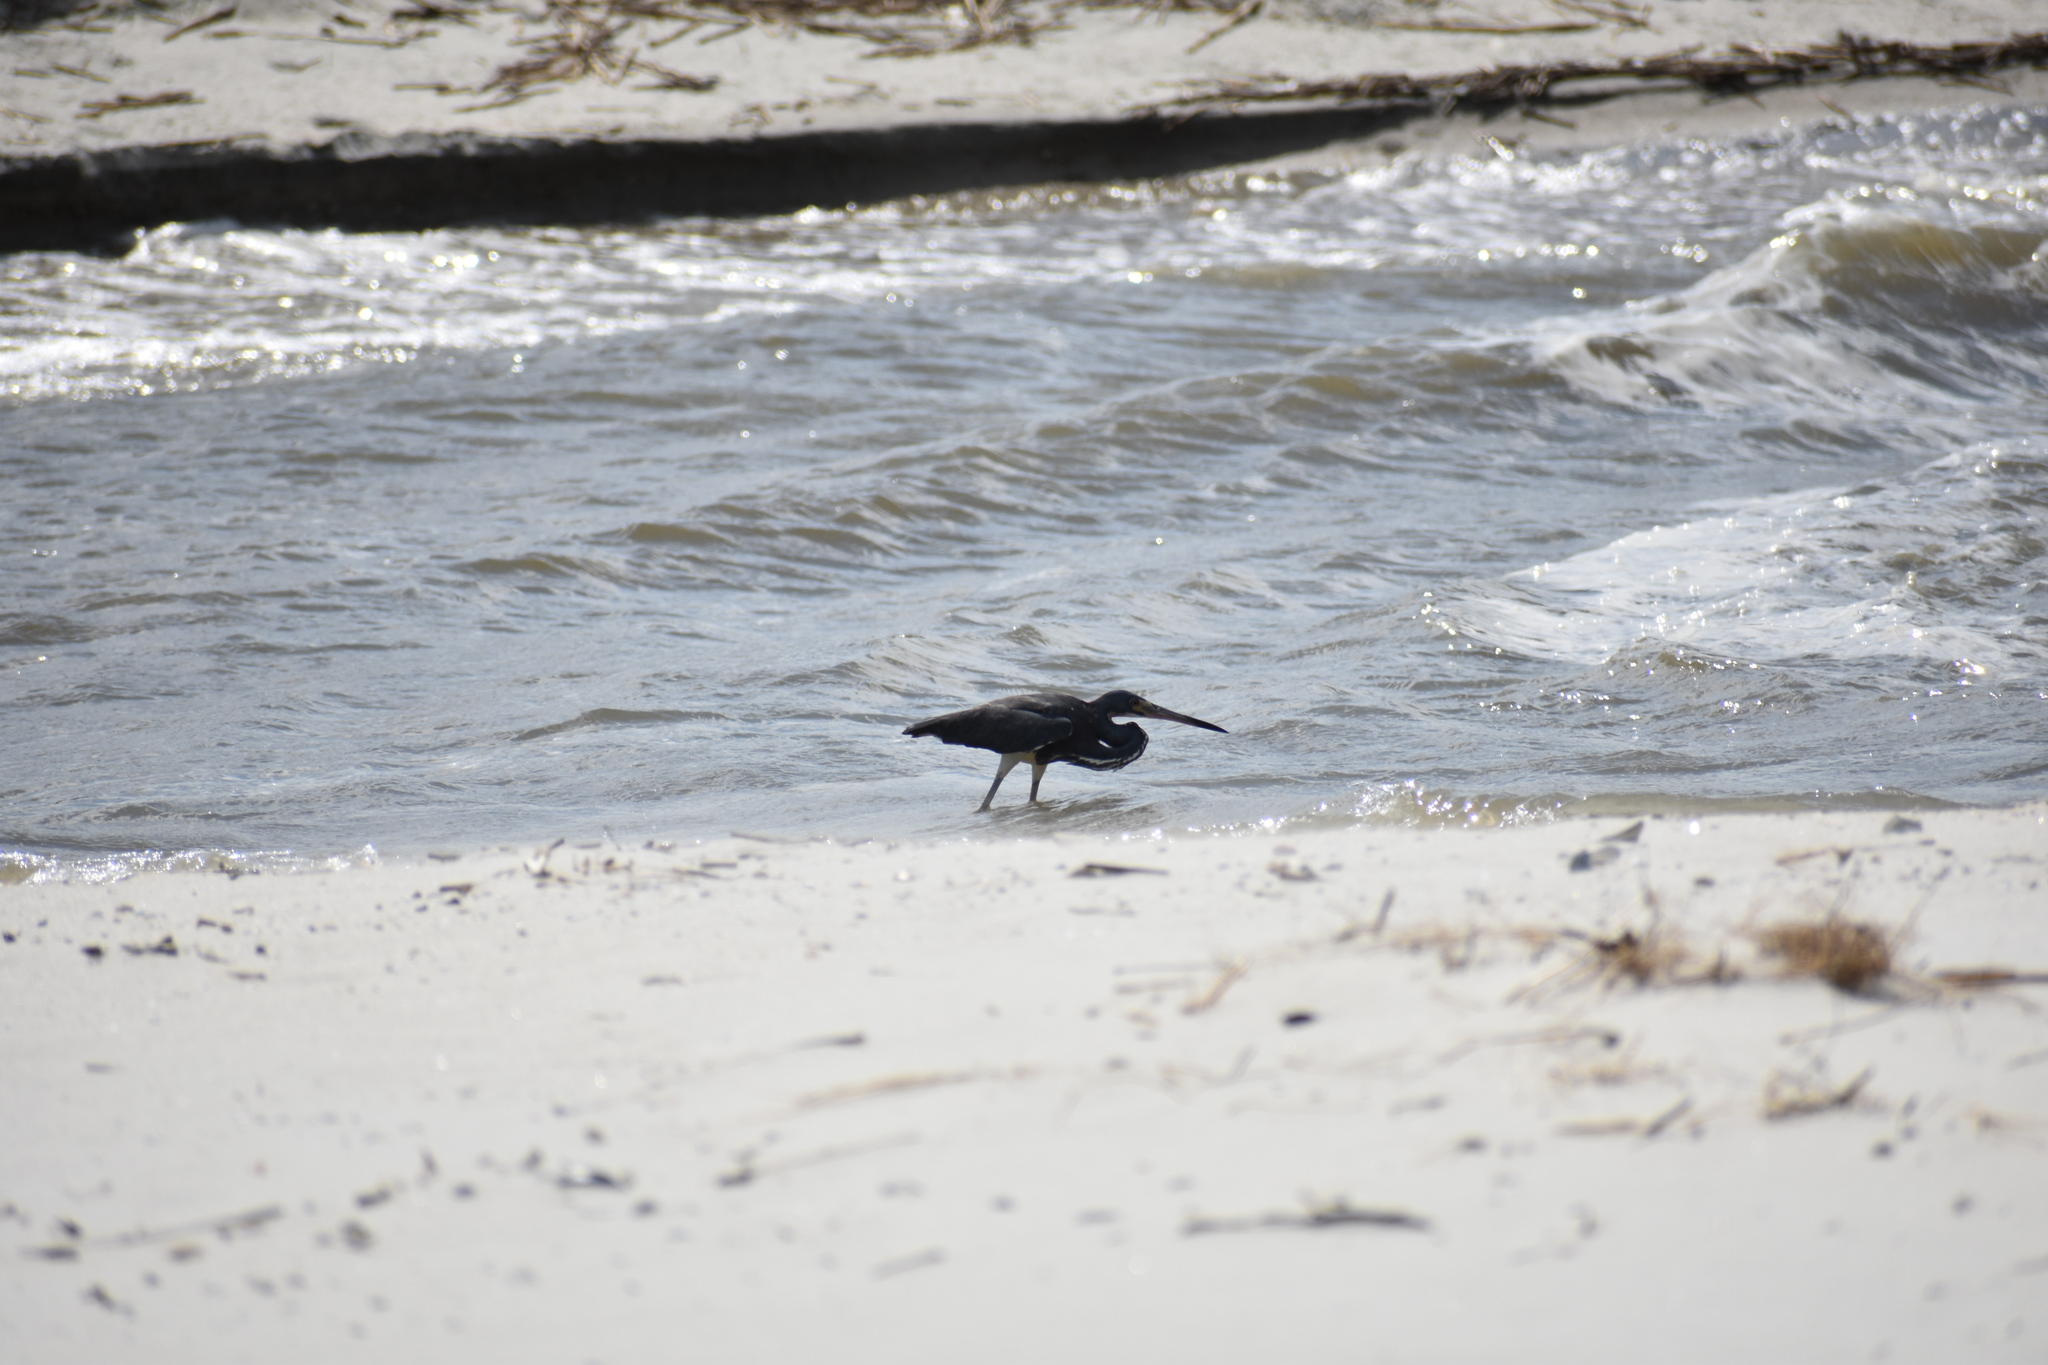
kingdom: Animalia
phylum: Chordata
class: Aves
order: Pelecaniformes
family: Ardeidae
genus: Egretta
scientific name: Egretta tricolor
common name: Tricolored heron
